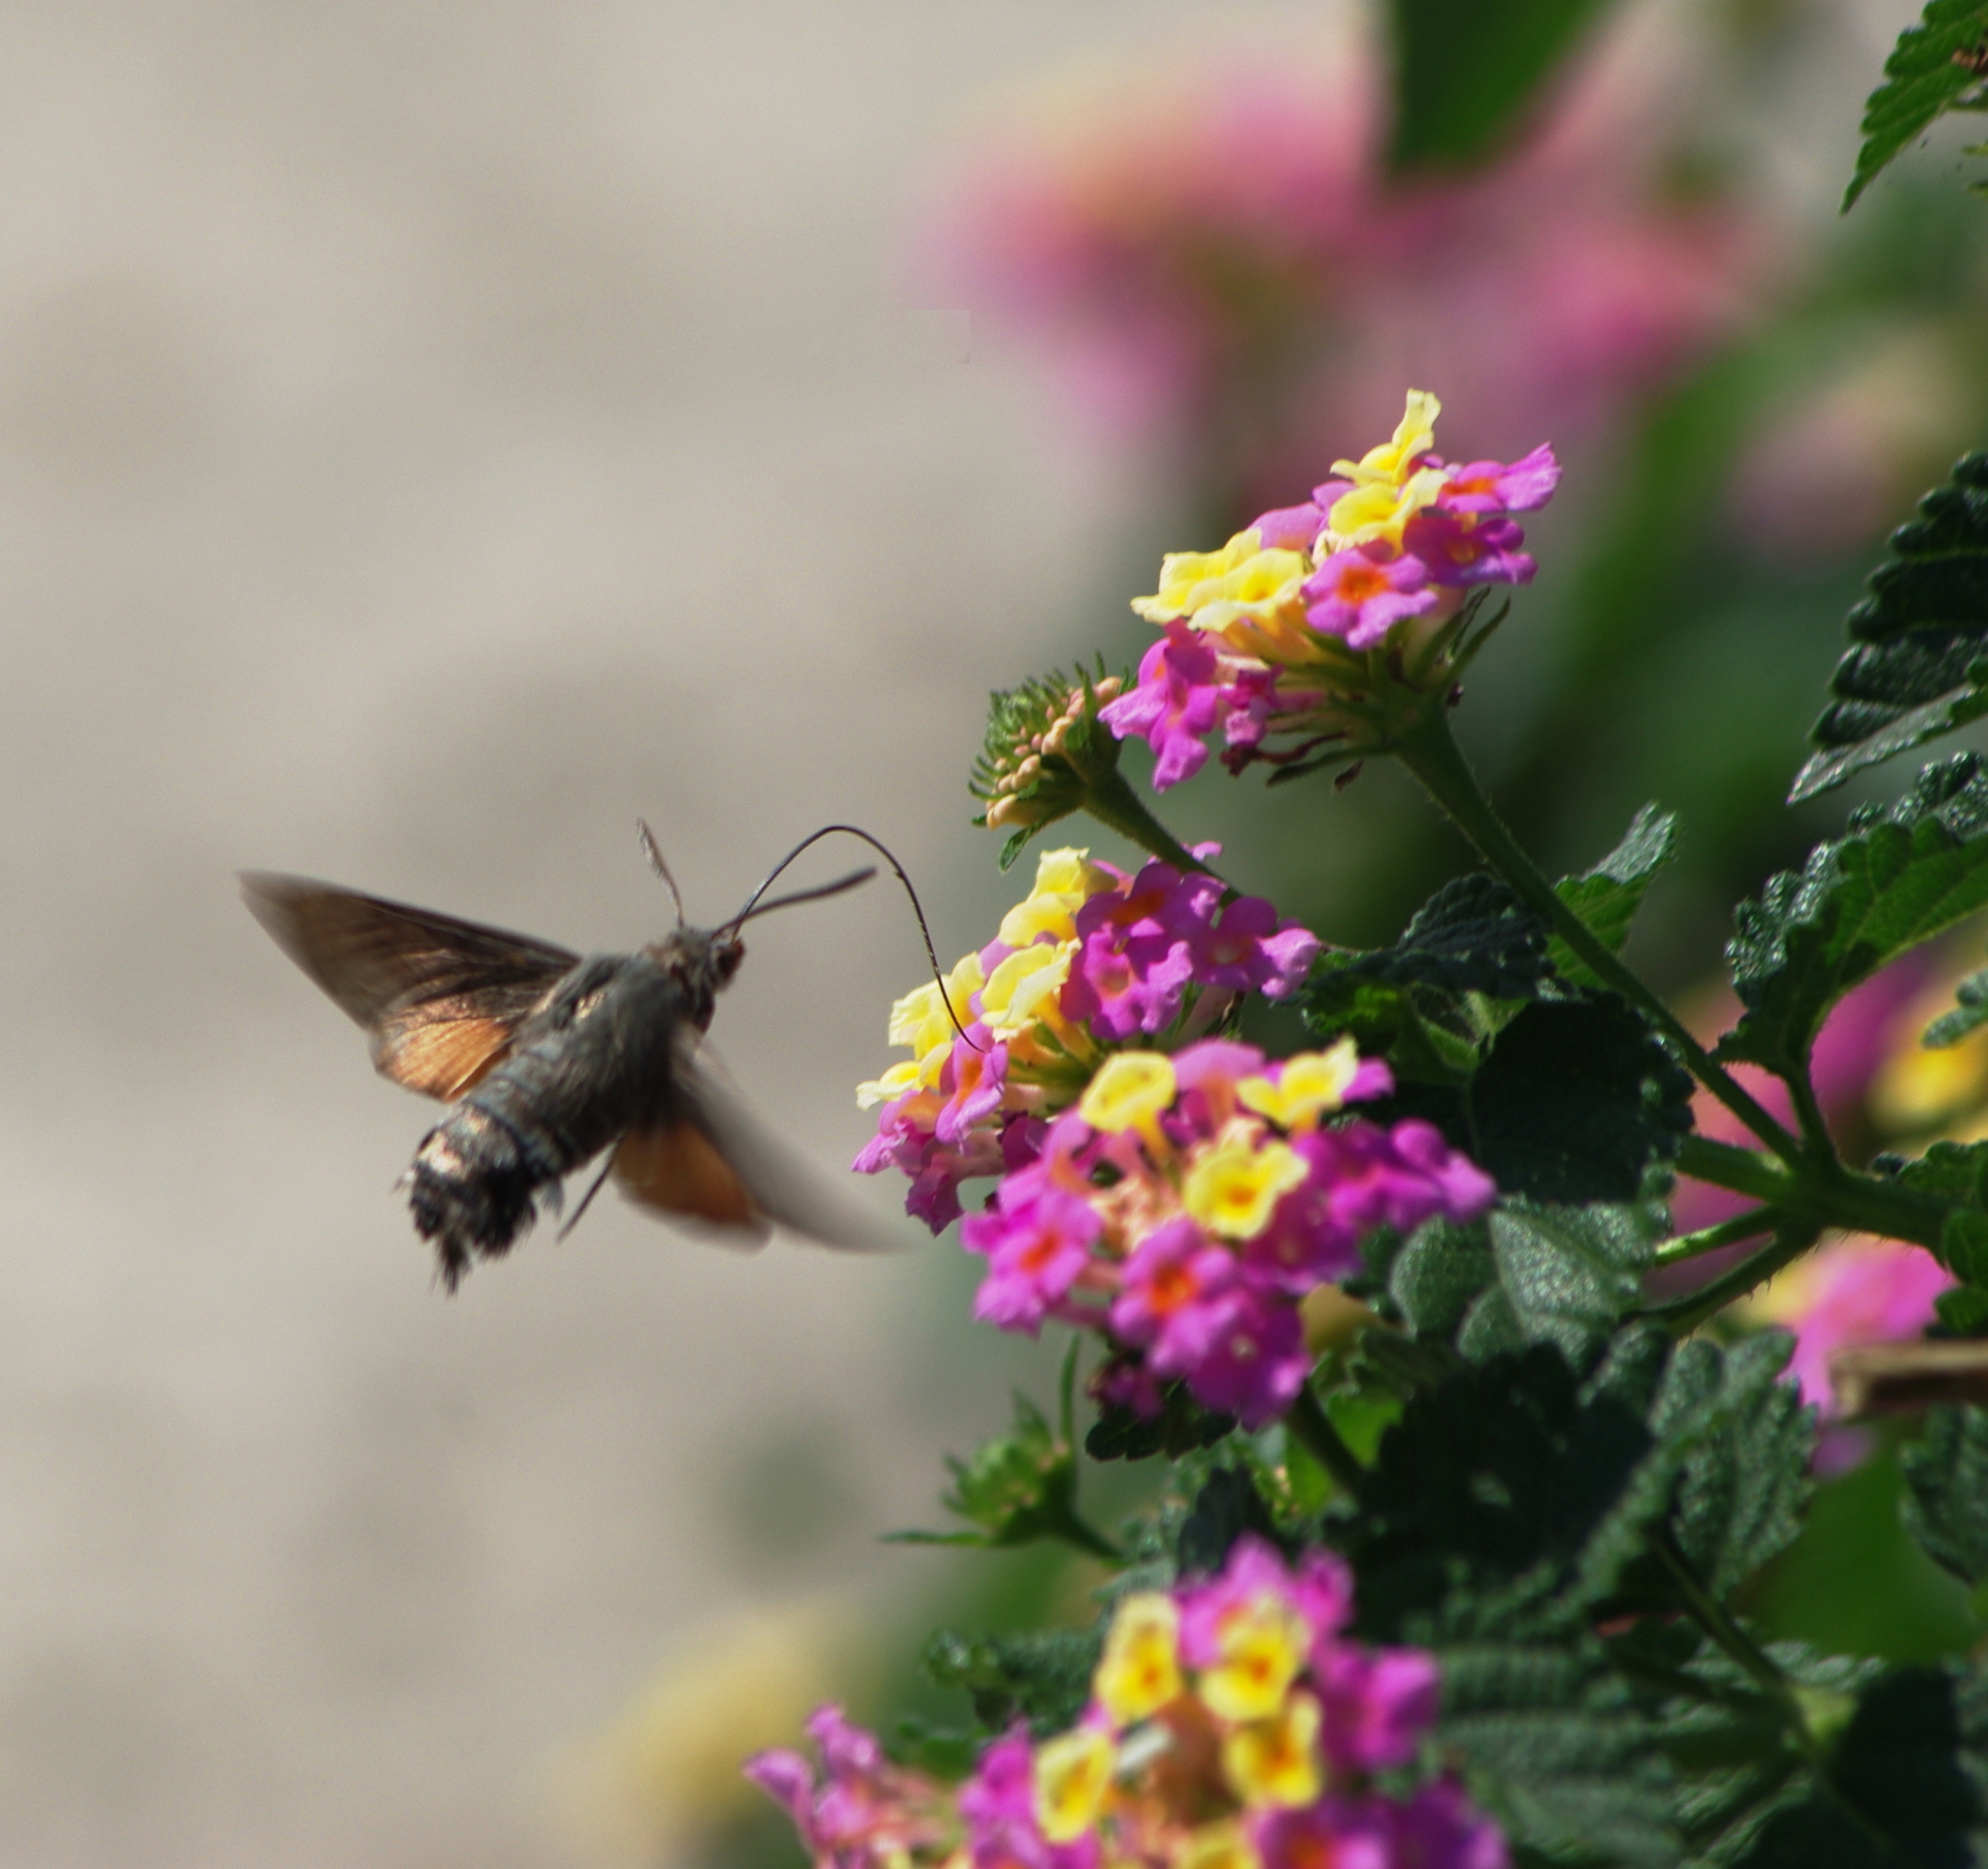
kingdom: Animalia
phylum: Arthropoda
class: Insecta
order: Lepidoptera
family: Sphingidae
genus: Macroglossum
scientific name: Macroglossum stellatarum
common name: Humming-bird hawk-moth
